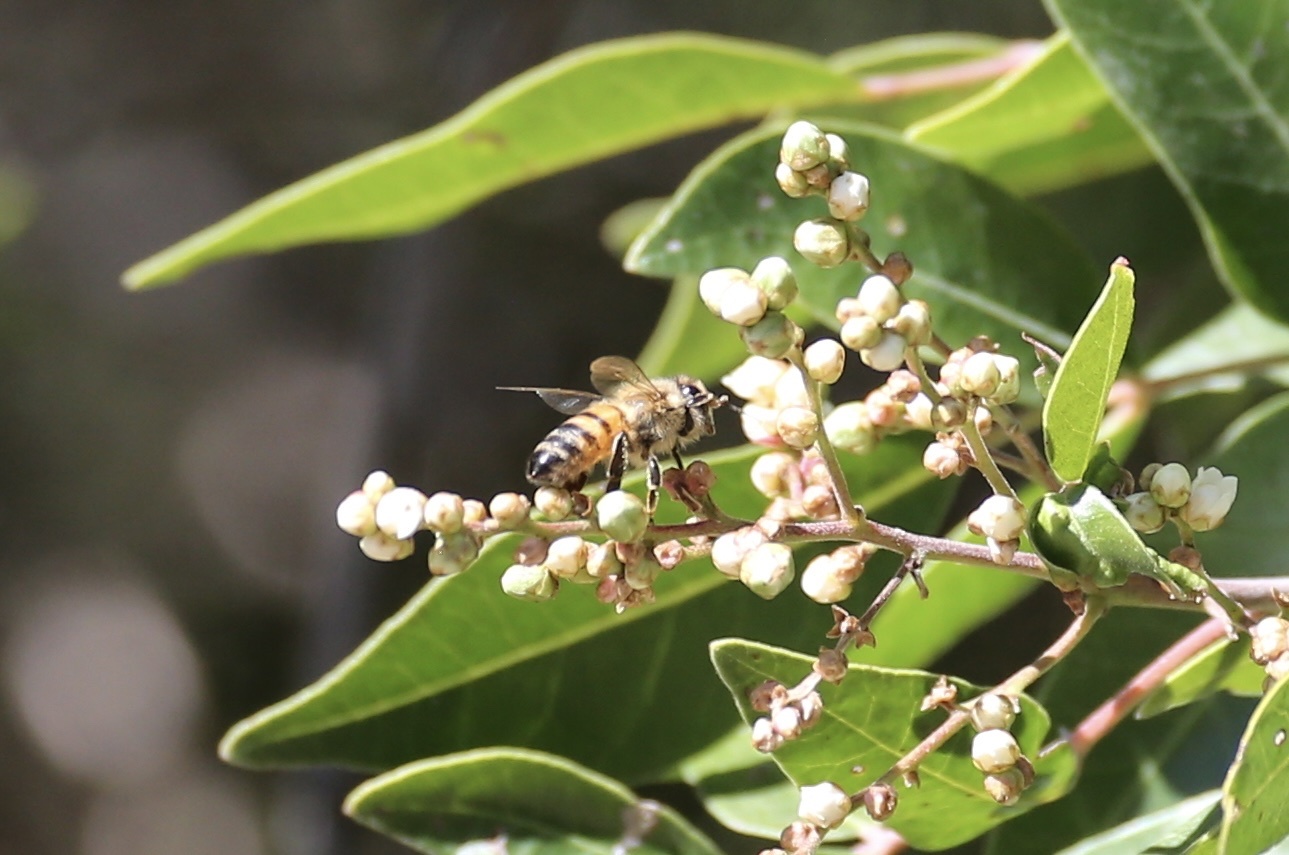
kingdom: Animalia
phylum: Arthropoda
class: Insecta
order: Hymenoptera
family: Apidae
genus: Apis
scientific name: Apis mellifera
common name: Honey bee
